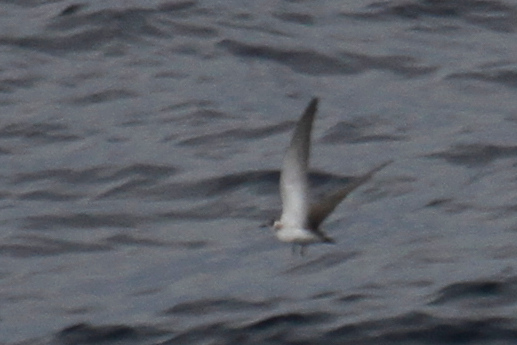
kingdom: Animalia
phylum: Chordata
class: Aves
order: Charadriiformes
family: Laridae
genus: Chlidonias
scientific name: Chlidonias niger
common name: Black tern
